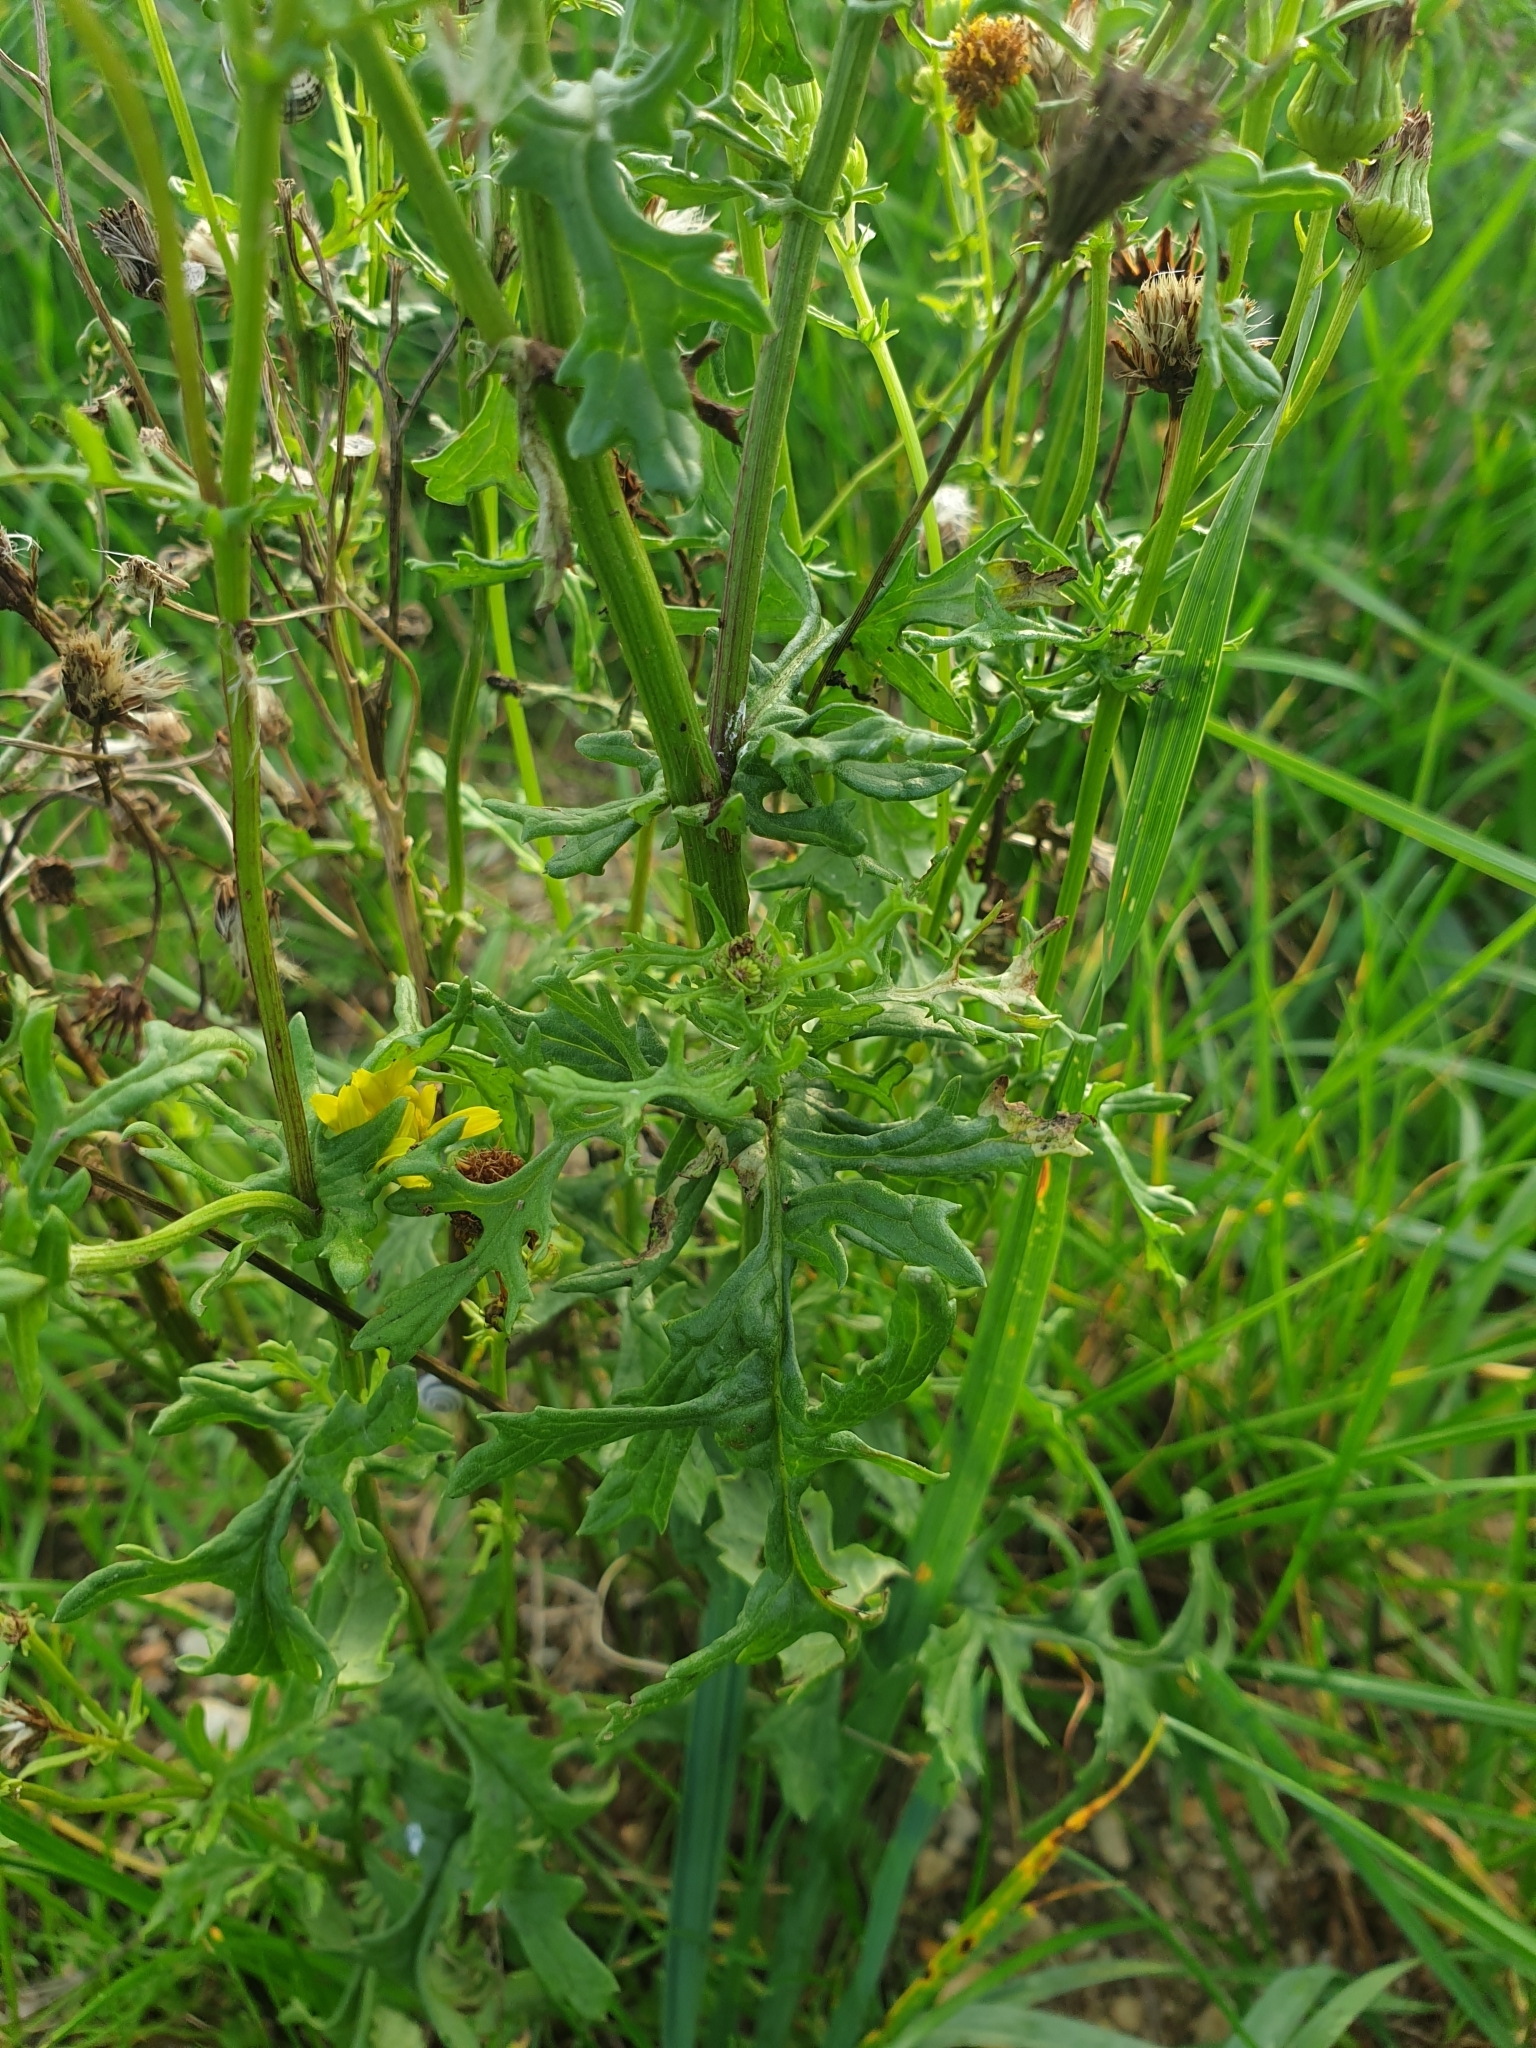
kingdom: Plantae
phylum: Tracheophyta
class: Magnoliopsida
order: Asterales
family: Asteraceae
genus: Jacobaea
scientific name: Jacobaea vulgaris
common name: Stinking willie
